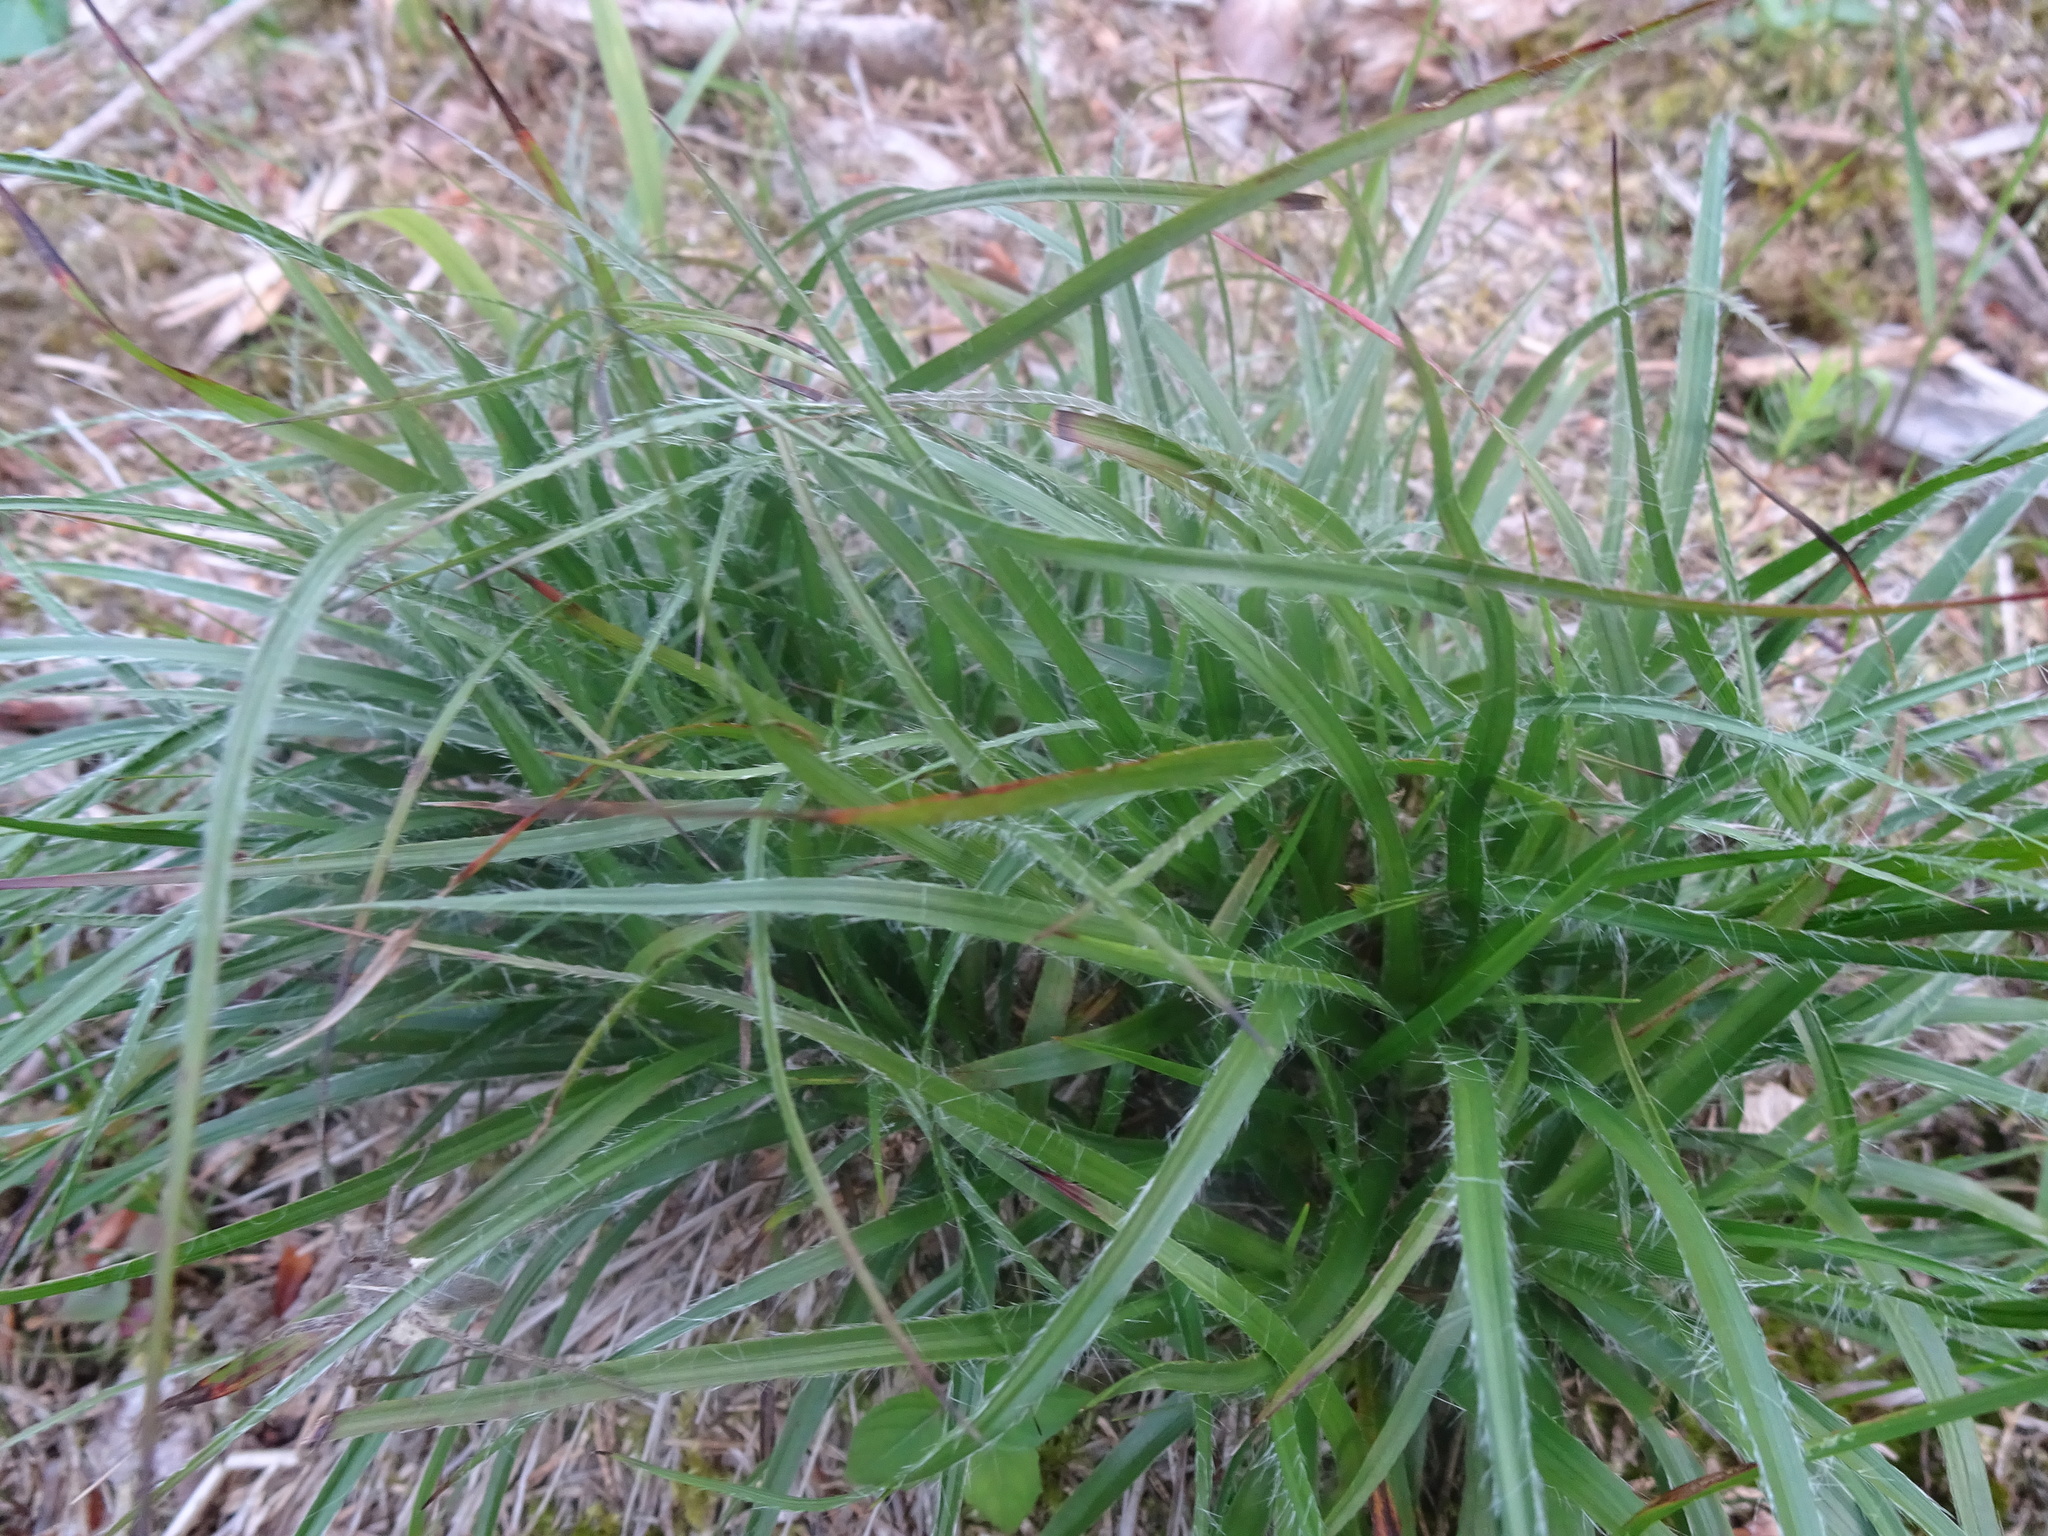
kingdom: Plantae
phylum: Tracheophyta
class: Liliopsida
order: Poales
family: Juncaceae
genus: Luzula
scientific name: Luzula multiflora
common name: Heath wood-rush
